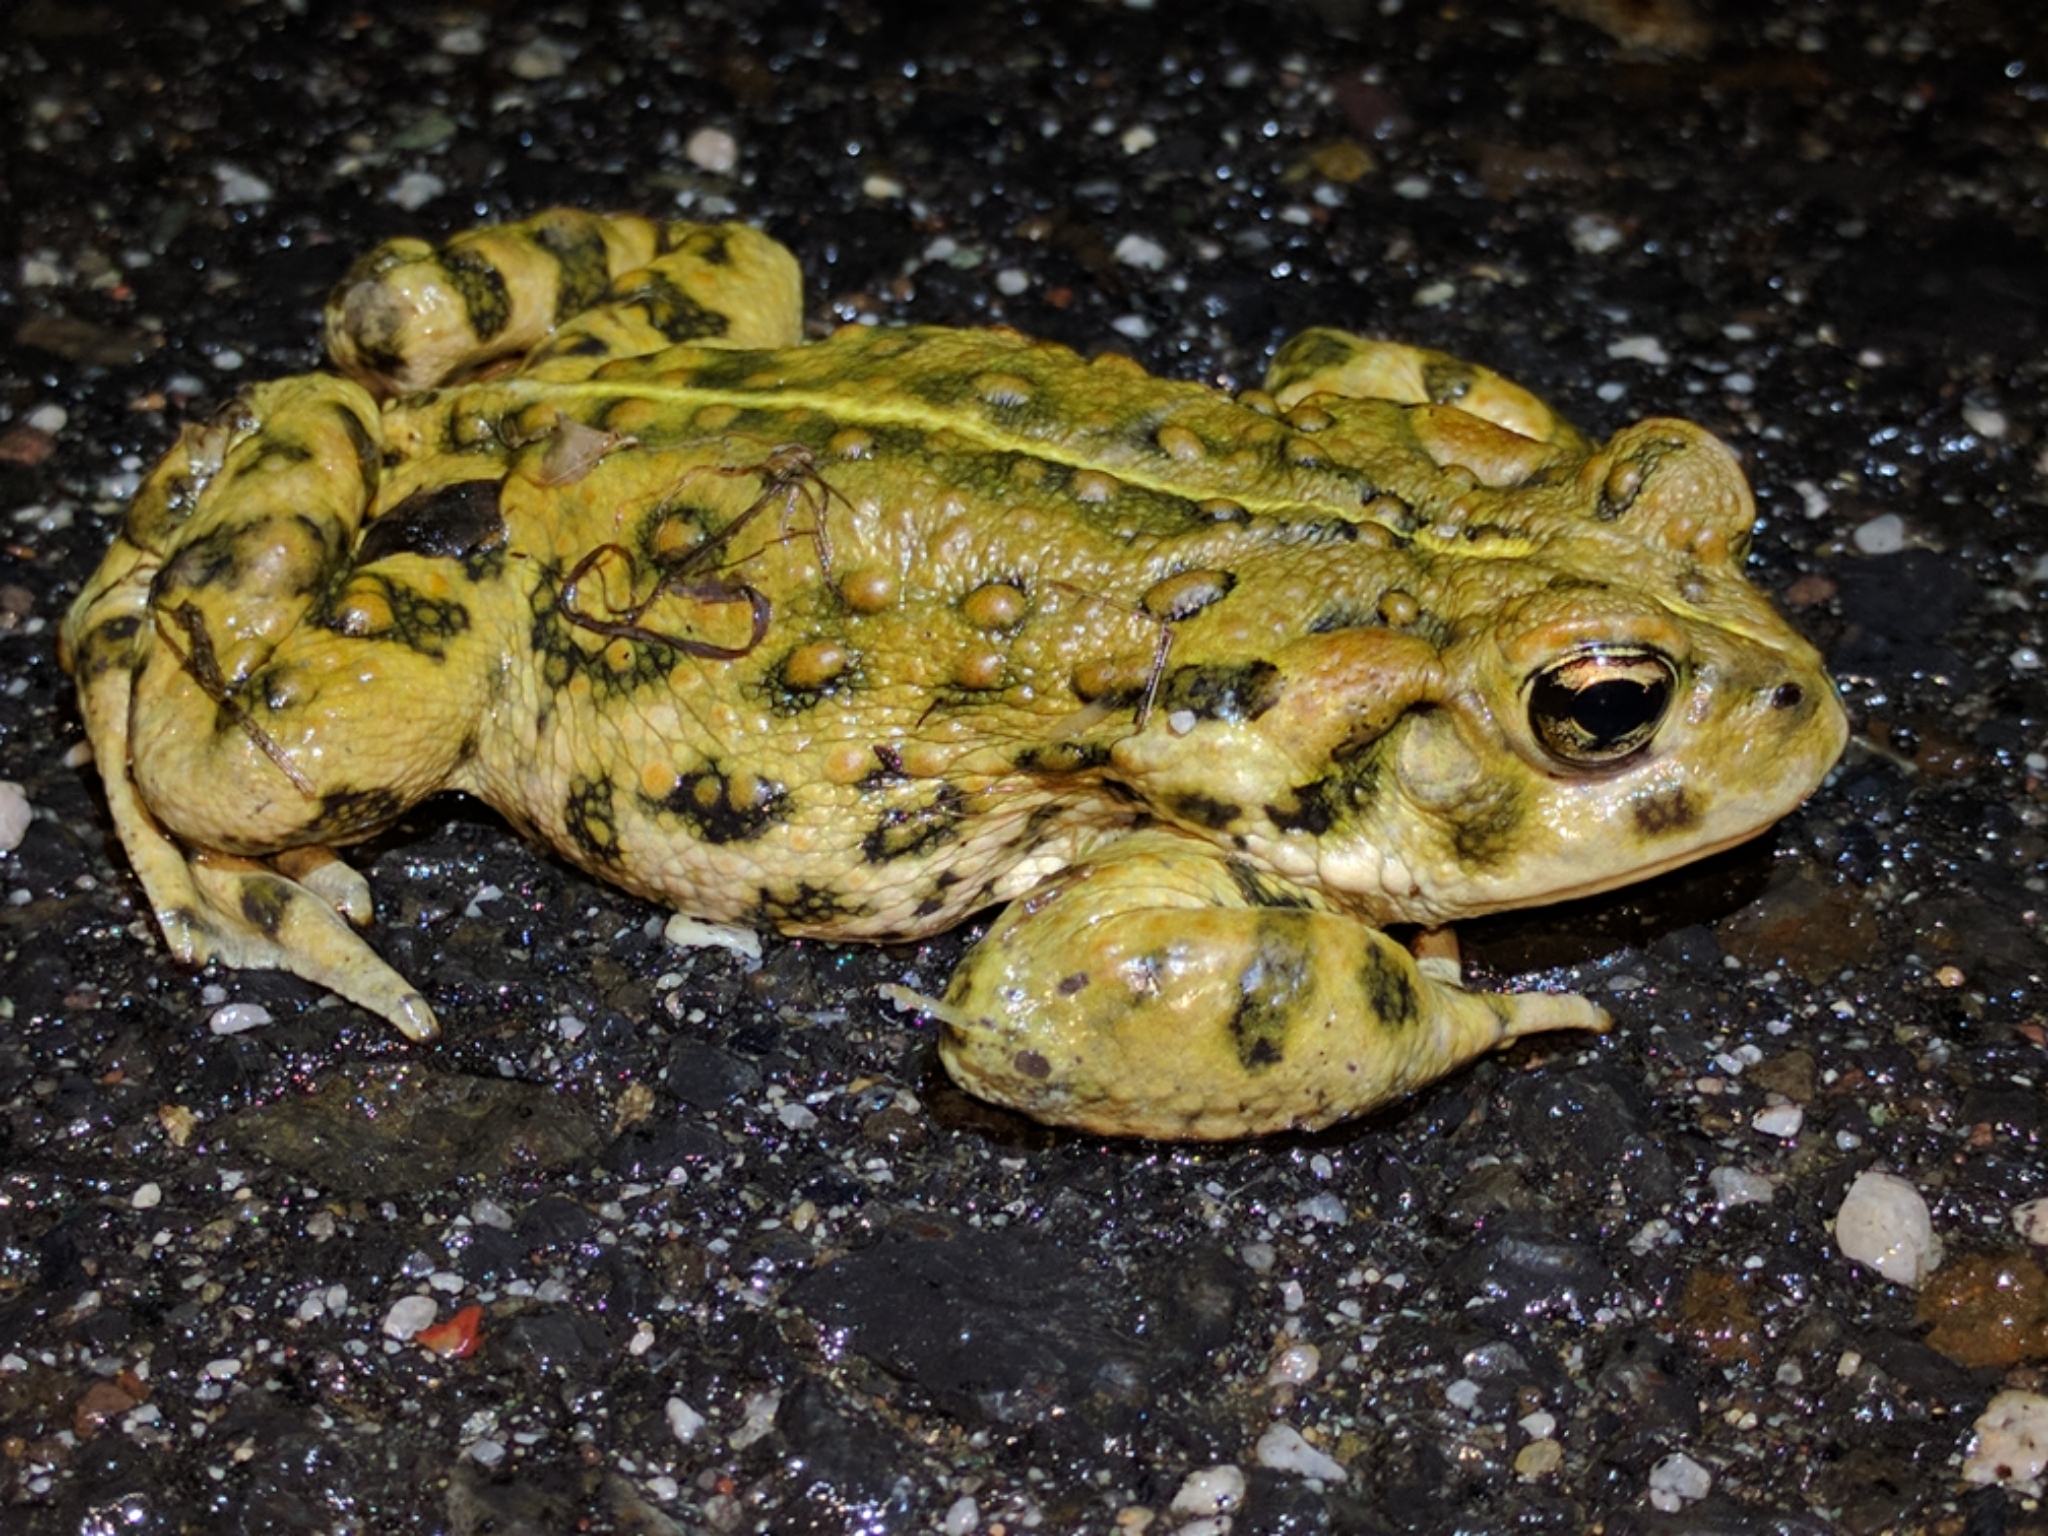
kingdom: Animalia
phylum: Chordata
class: Amphibia
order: Anura
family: Bufonidae
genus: Anaxyrus
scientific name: Anaxyrus boreas
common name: Western toad
